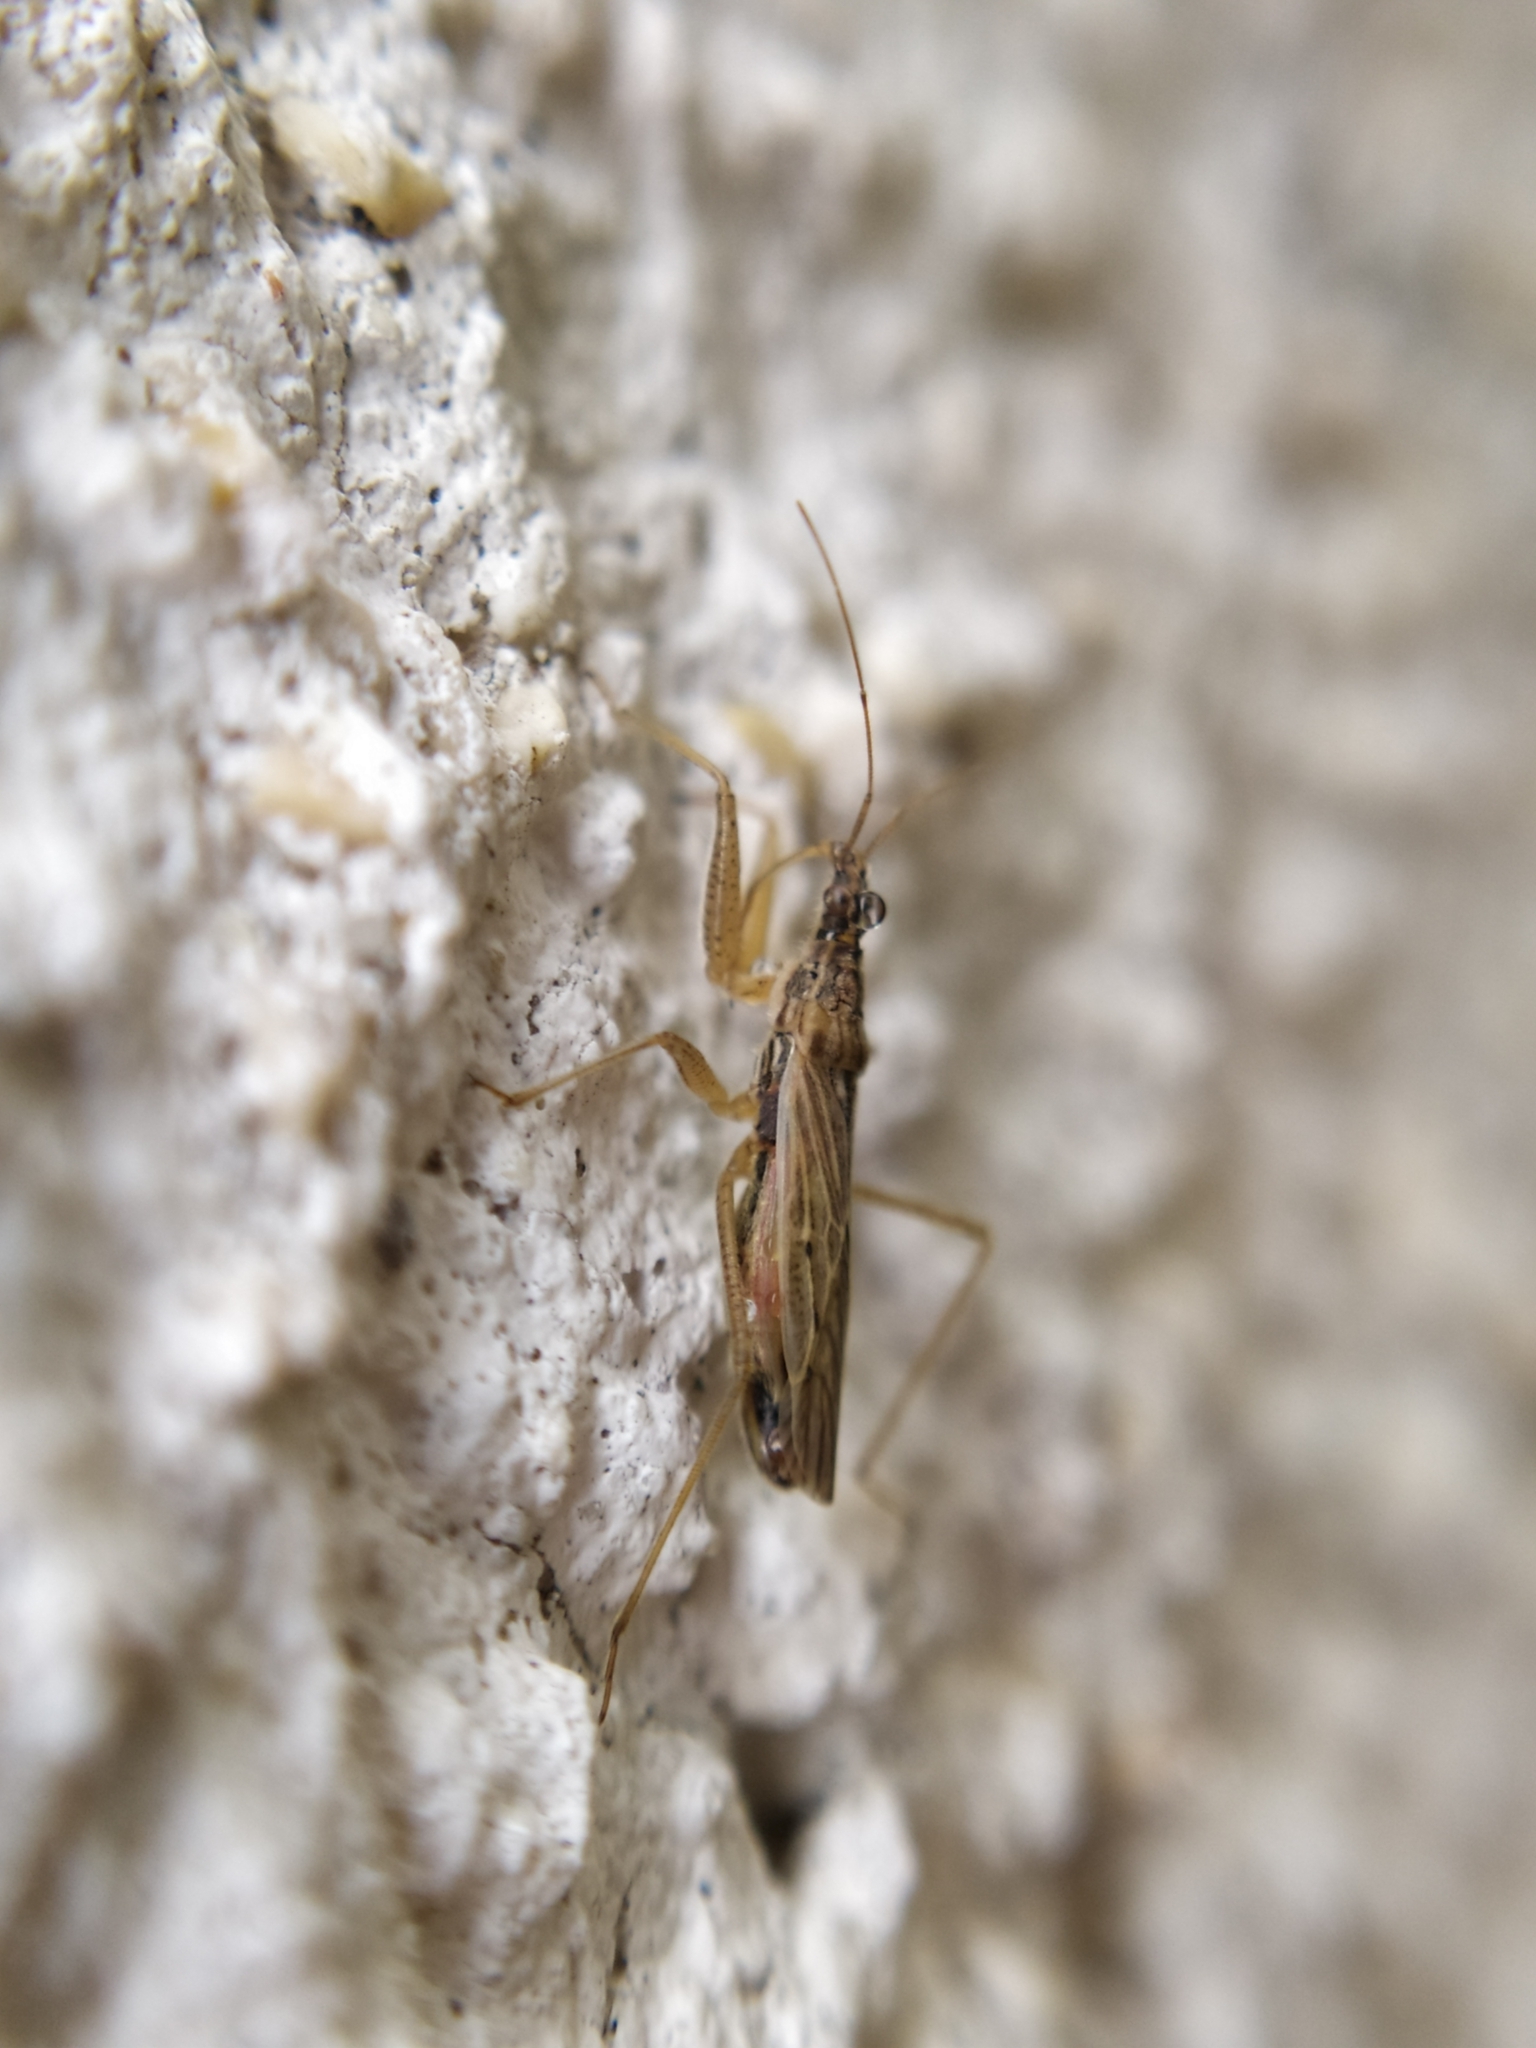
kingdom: Animalia
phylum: Arthropoda
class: Insecta
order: Hemiptera
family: Nabidae
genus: Nabis
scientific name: Nabis
